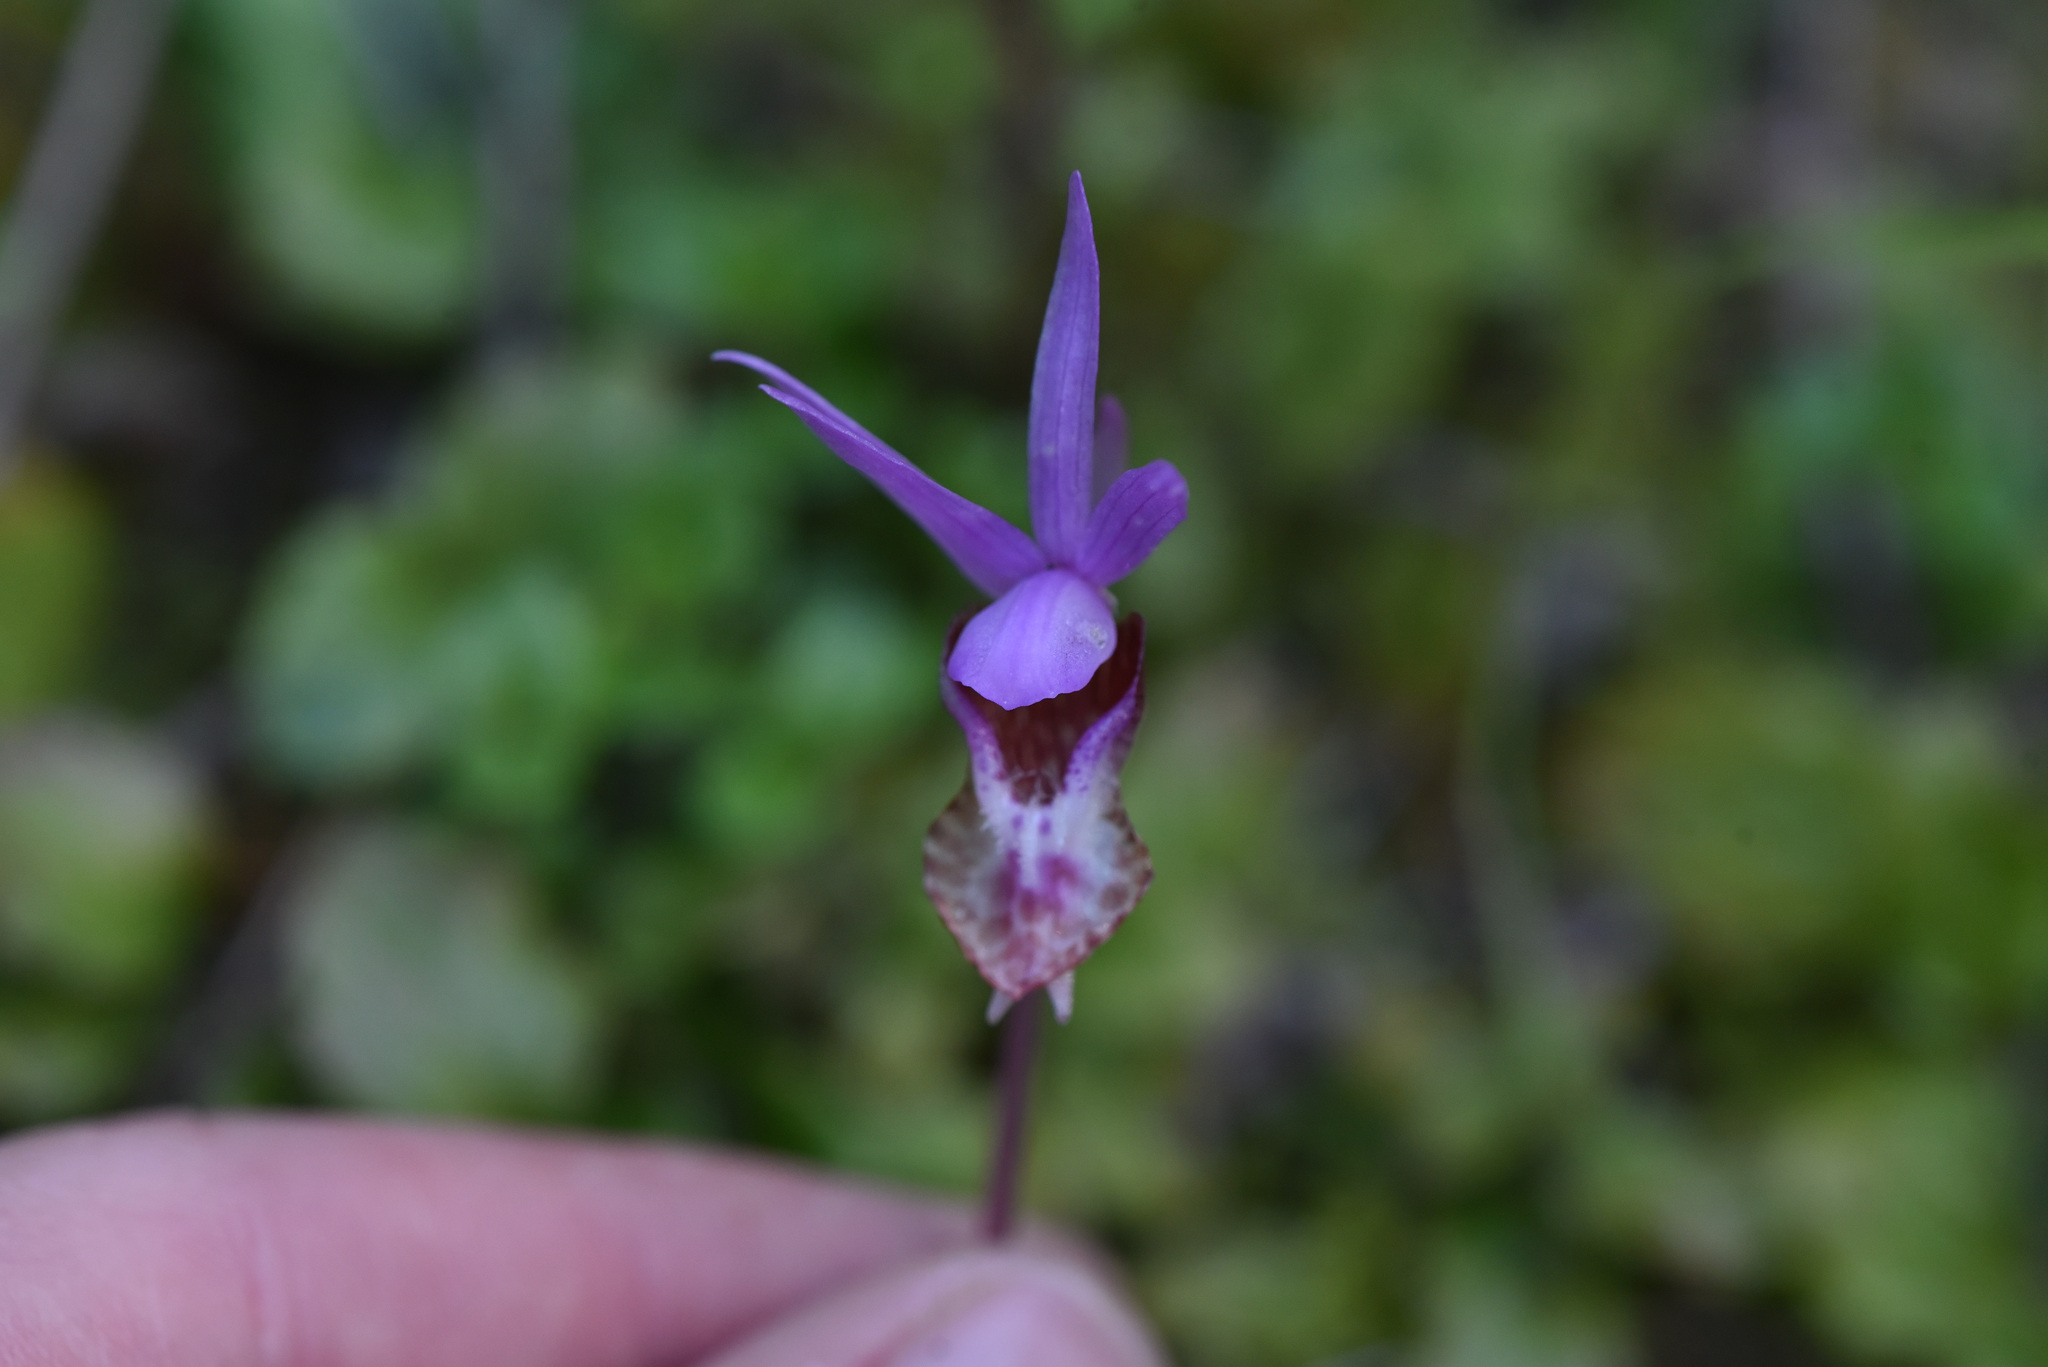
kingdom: Plantae
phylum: Tracheophyta
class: Liliopsida
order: Asparagales
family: Orchidaceae
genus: Calypso
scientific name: Calypso bulbosa
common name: Calypso
